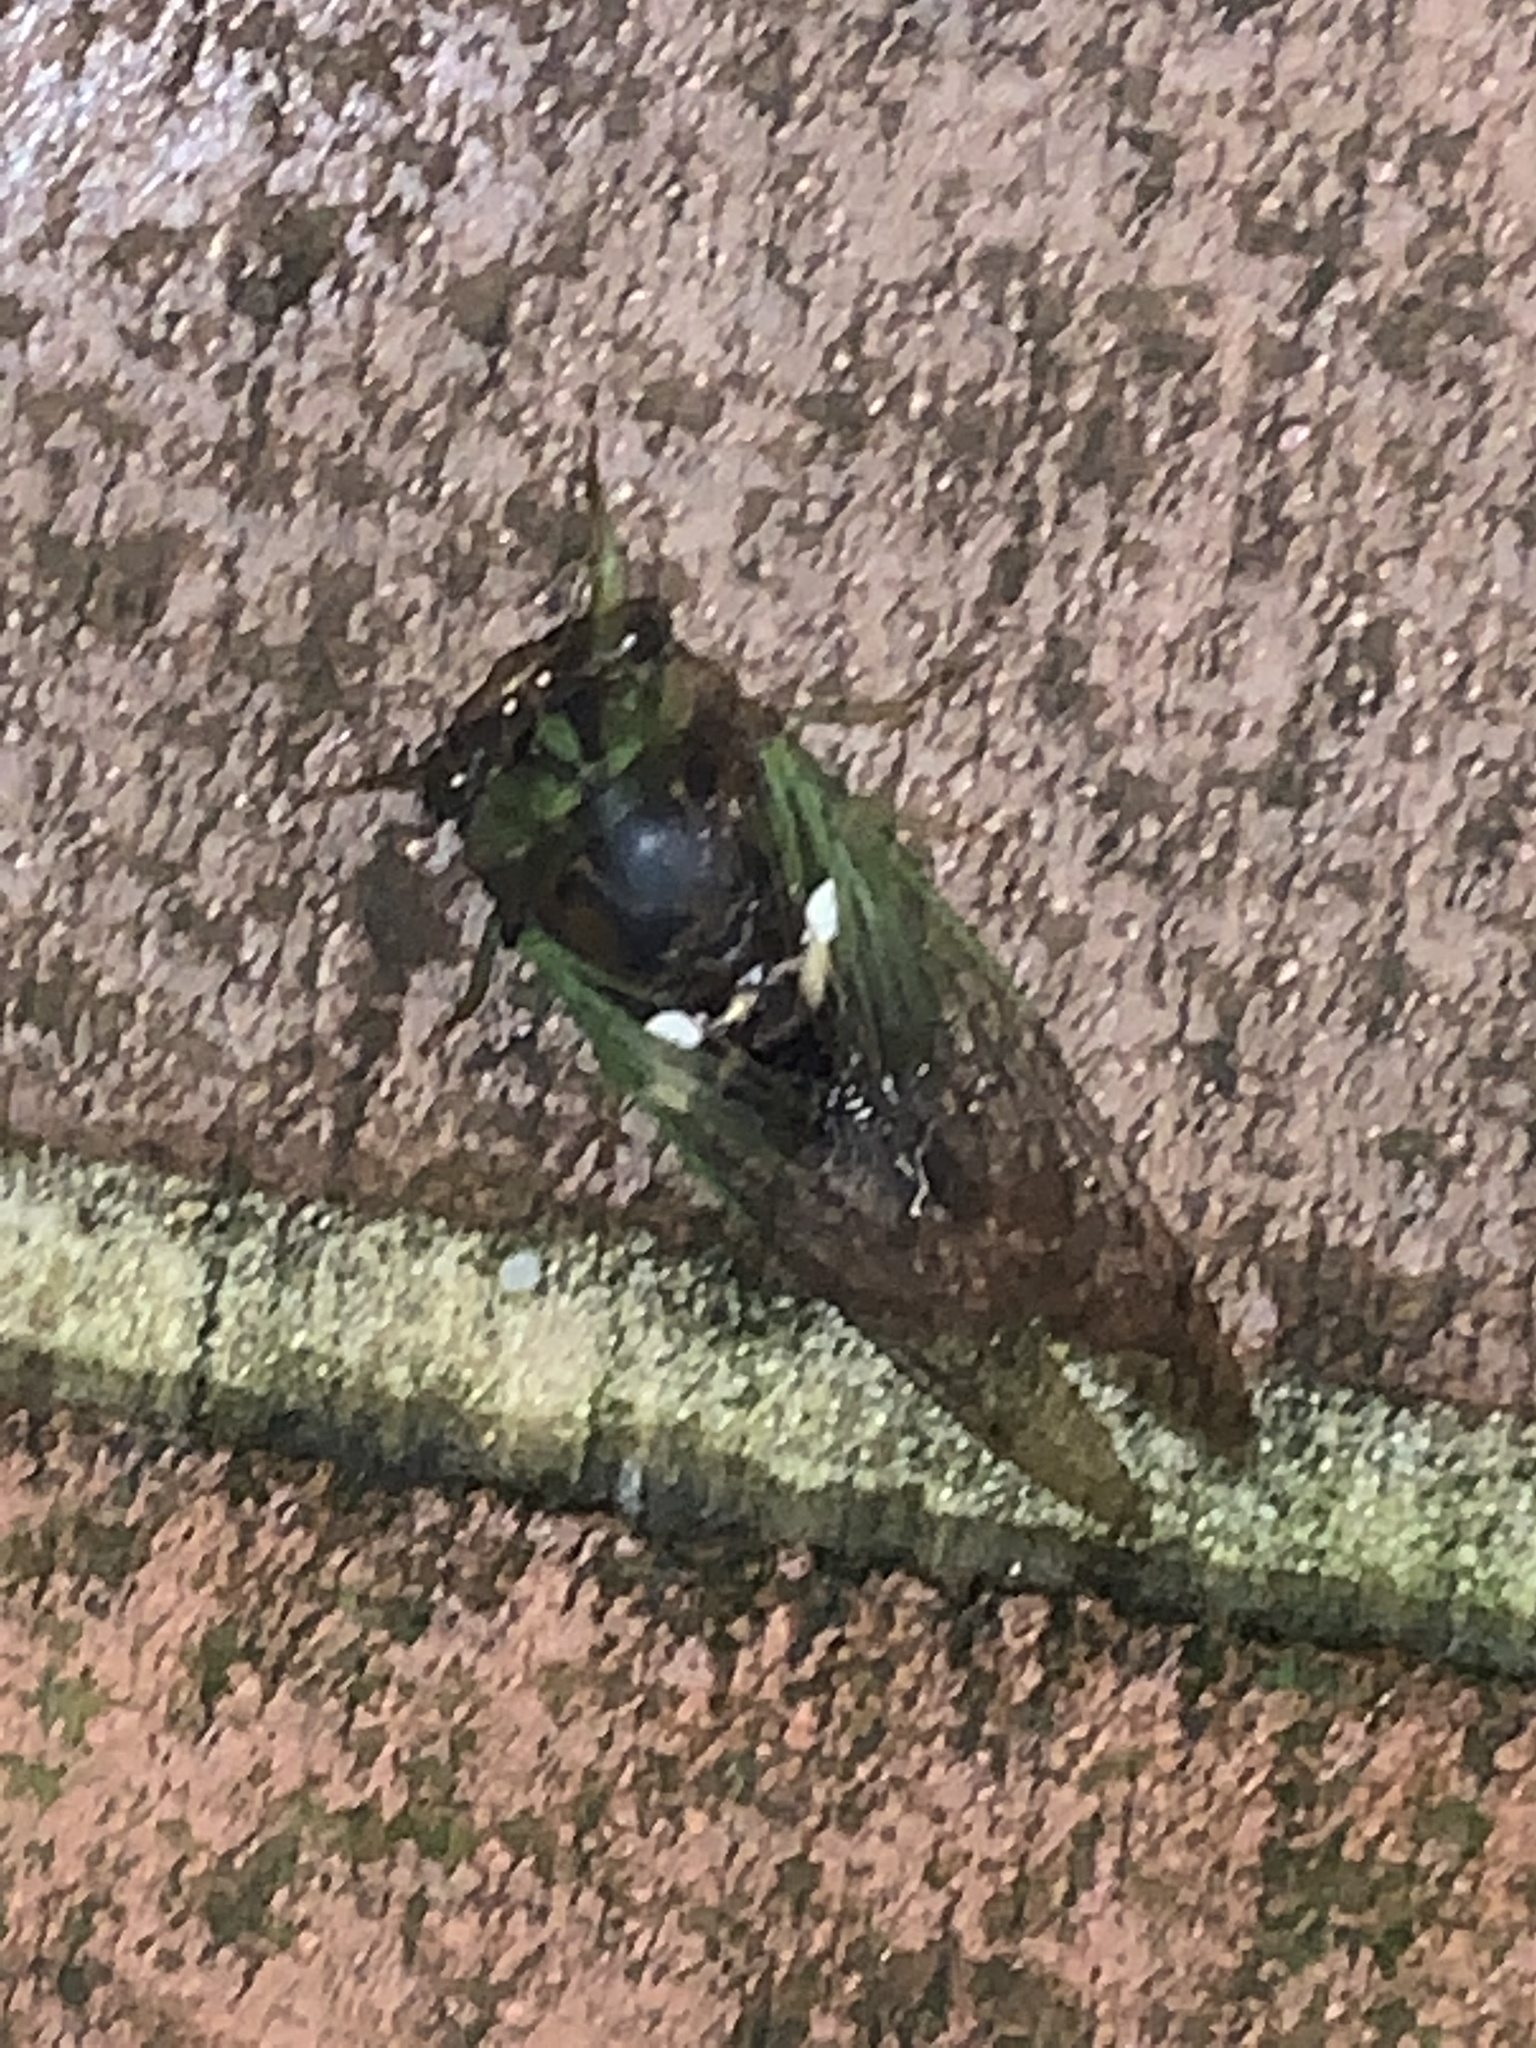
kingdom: Animalia
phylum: Arthropoda
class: Insecta
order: Hemiptera
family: Cicadidae
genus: Neotibicen
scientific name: Neotibicen tibicen
